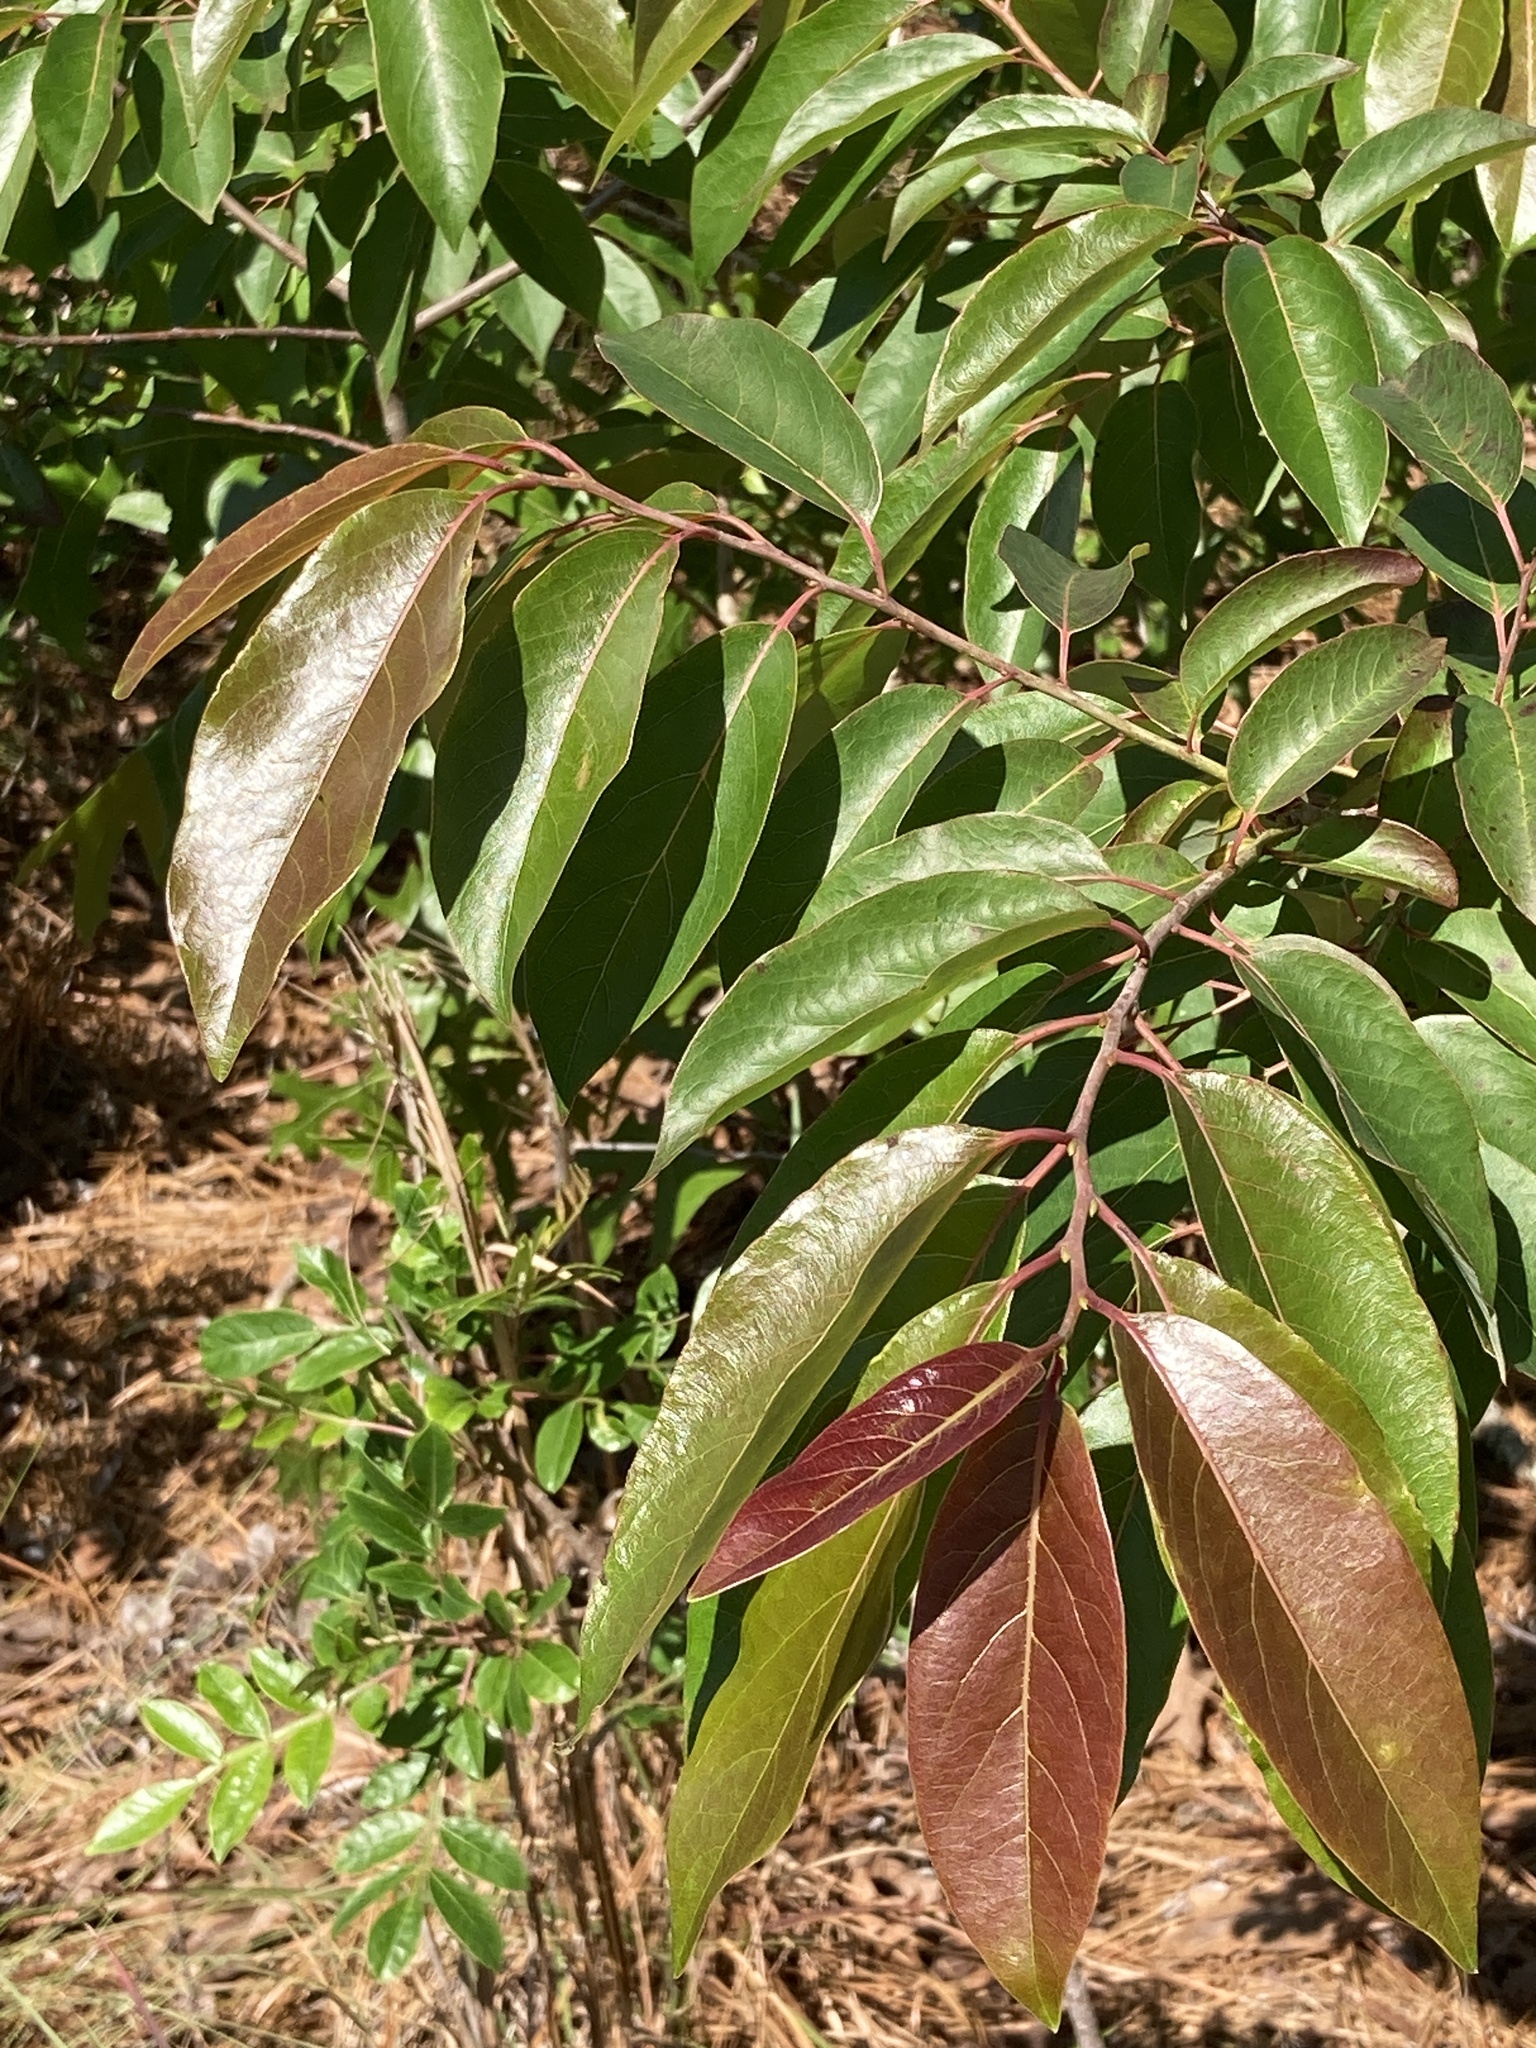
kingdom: Plantae
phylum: Tracheophyta
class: Magnoliopsida
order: Ericales
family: Ebenaceae
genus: Diospyros
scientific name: Diospyros virginiana
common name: Persimmon
